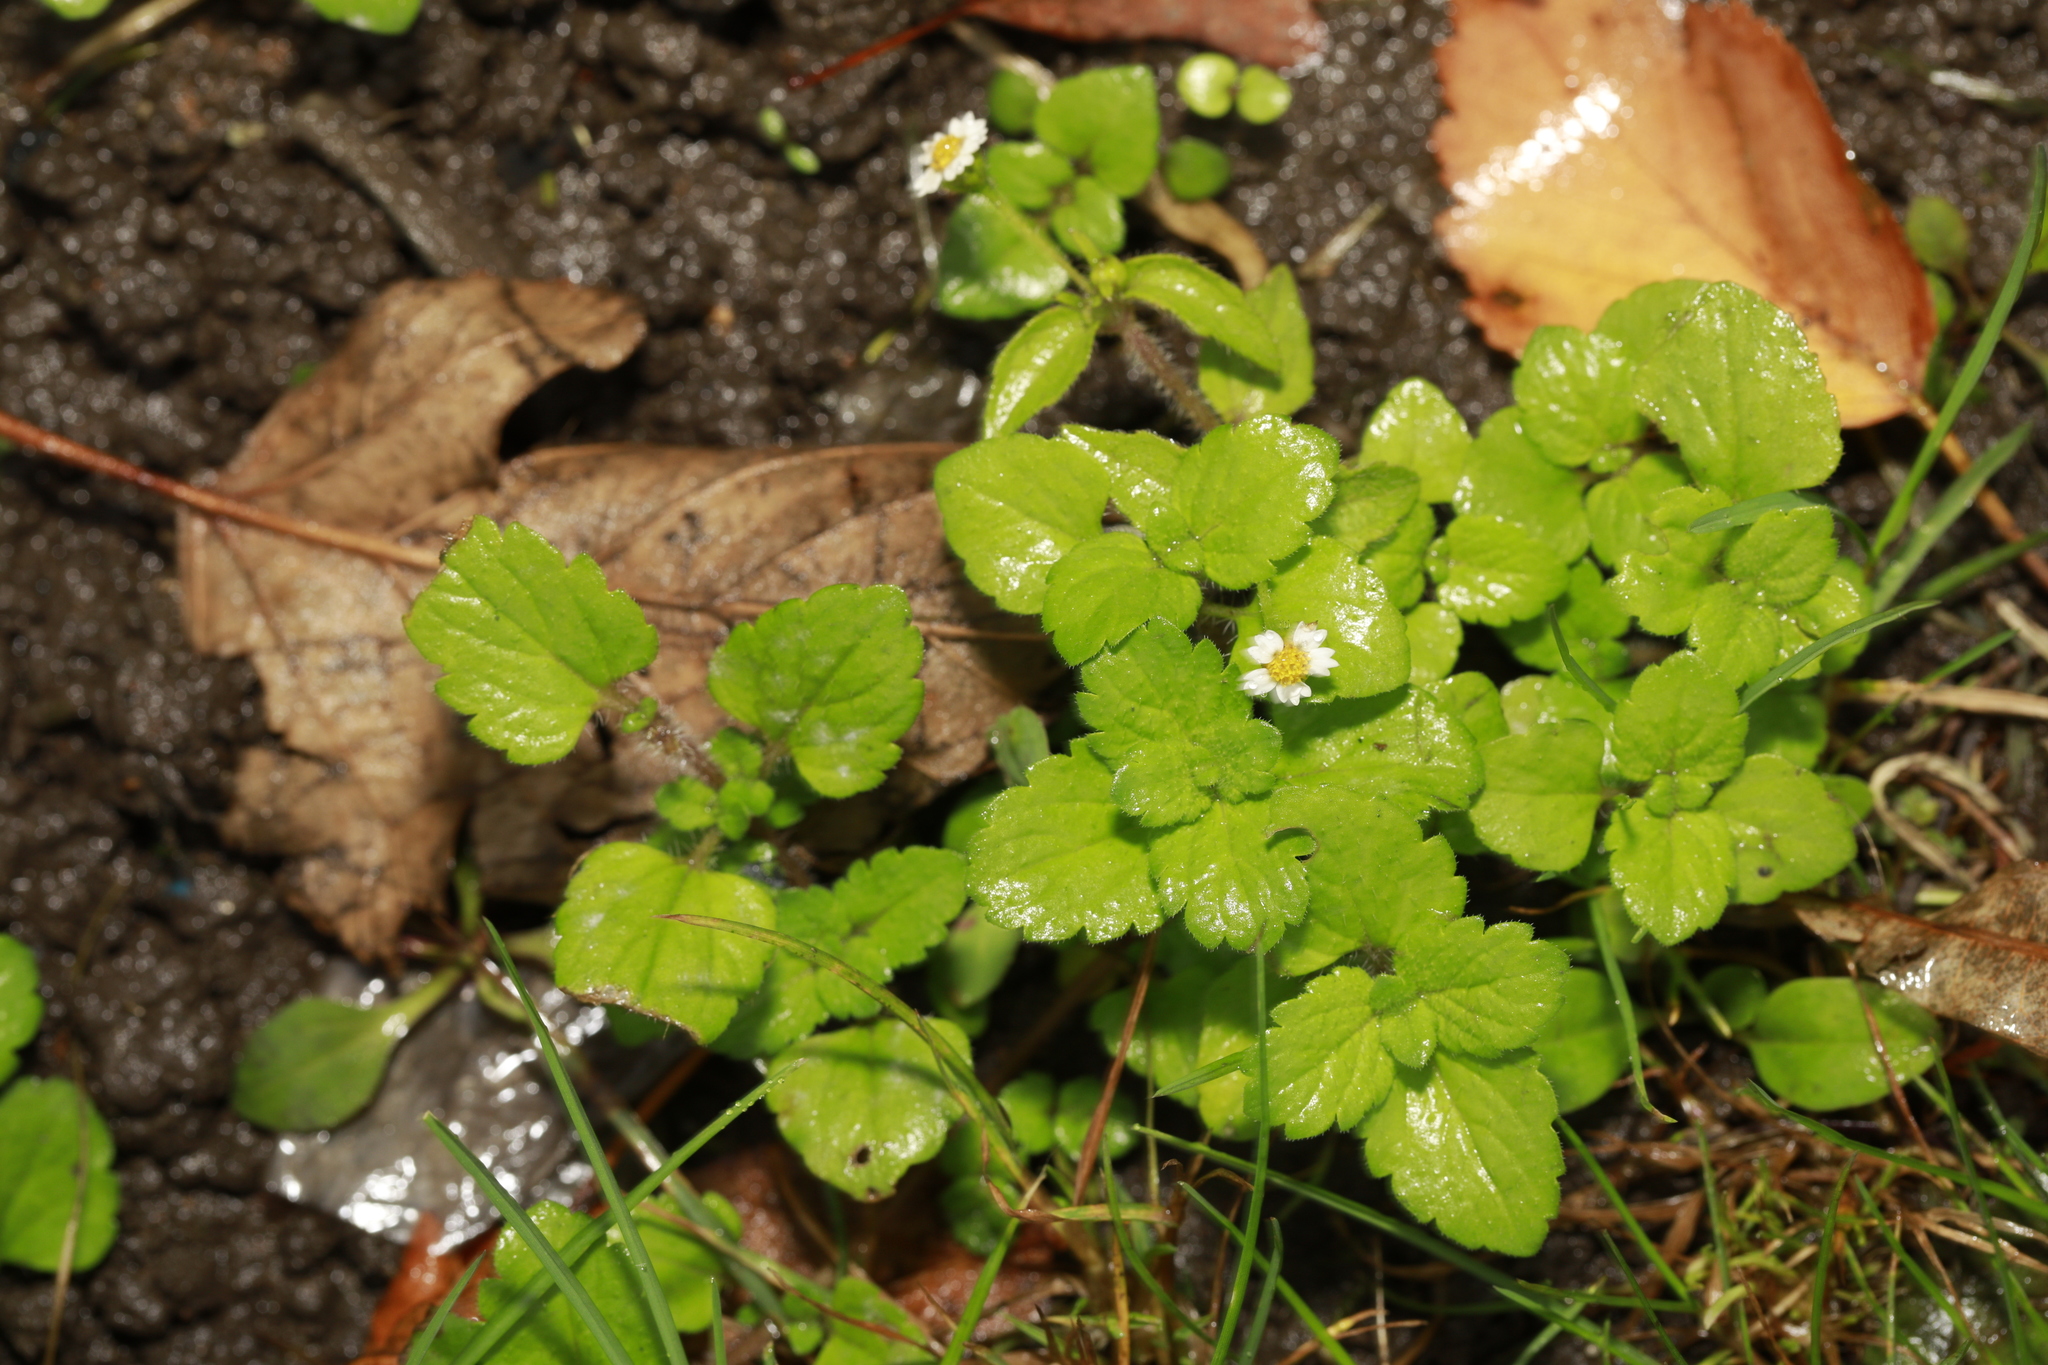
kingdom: Plantae
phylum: Tracheophyta
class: Magnoliopsida
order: Asterales
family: Asteraceae
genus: Galinsoga
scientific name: Galinsoga quadriradiata
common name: Shaggy soldier
